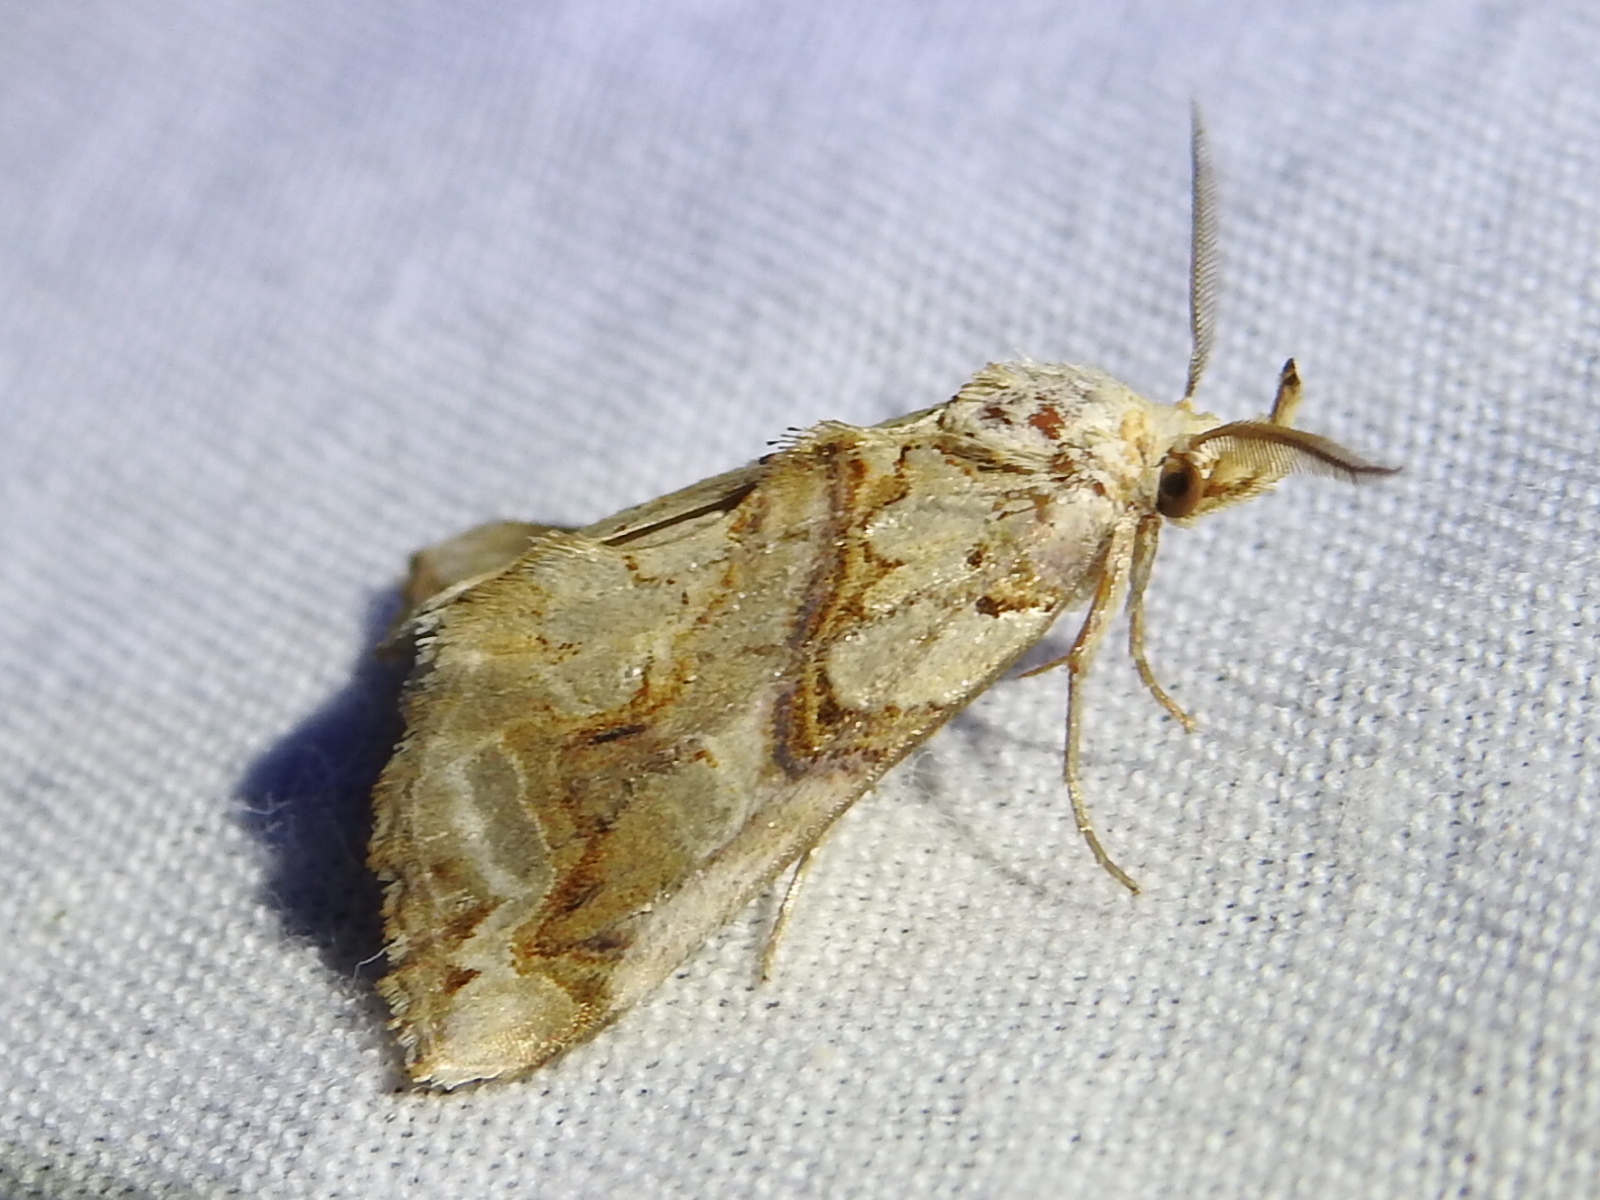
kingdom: Animalia
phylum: Arthropoda
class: Insecta
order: Lepidoptera
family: Erebidae
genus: Plusiodonta
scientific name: Plusiodonta compressipalpis
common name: Moonseed moth
